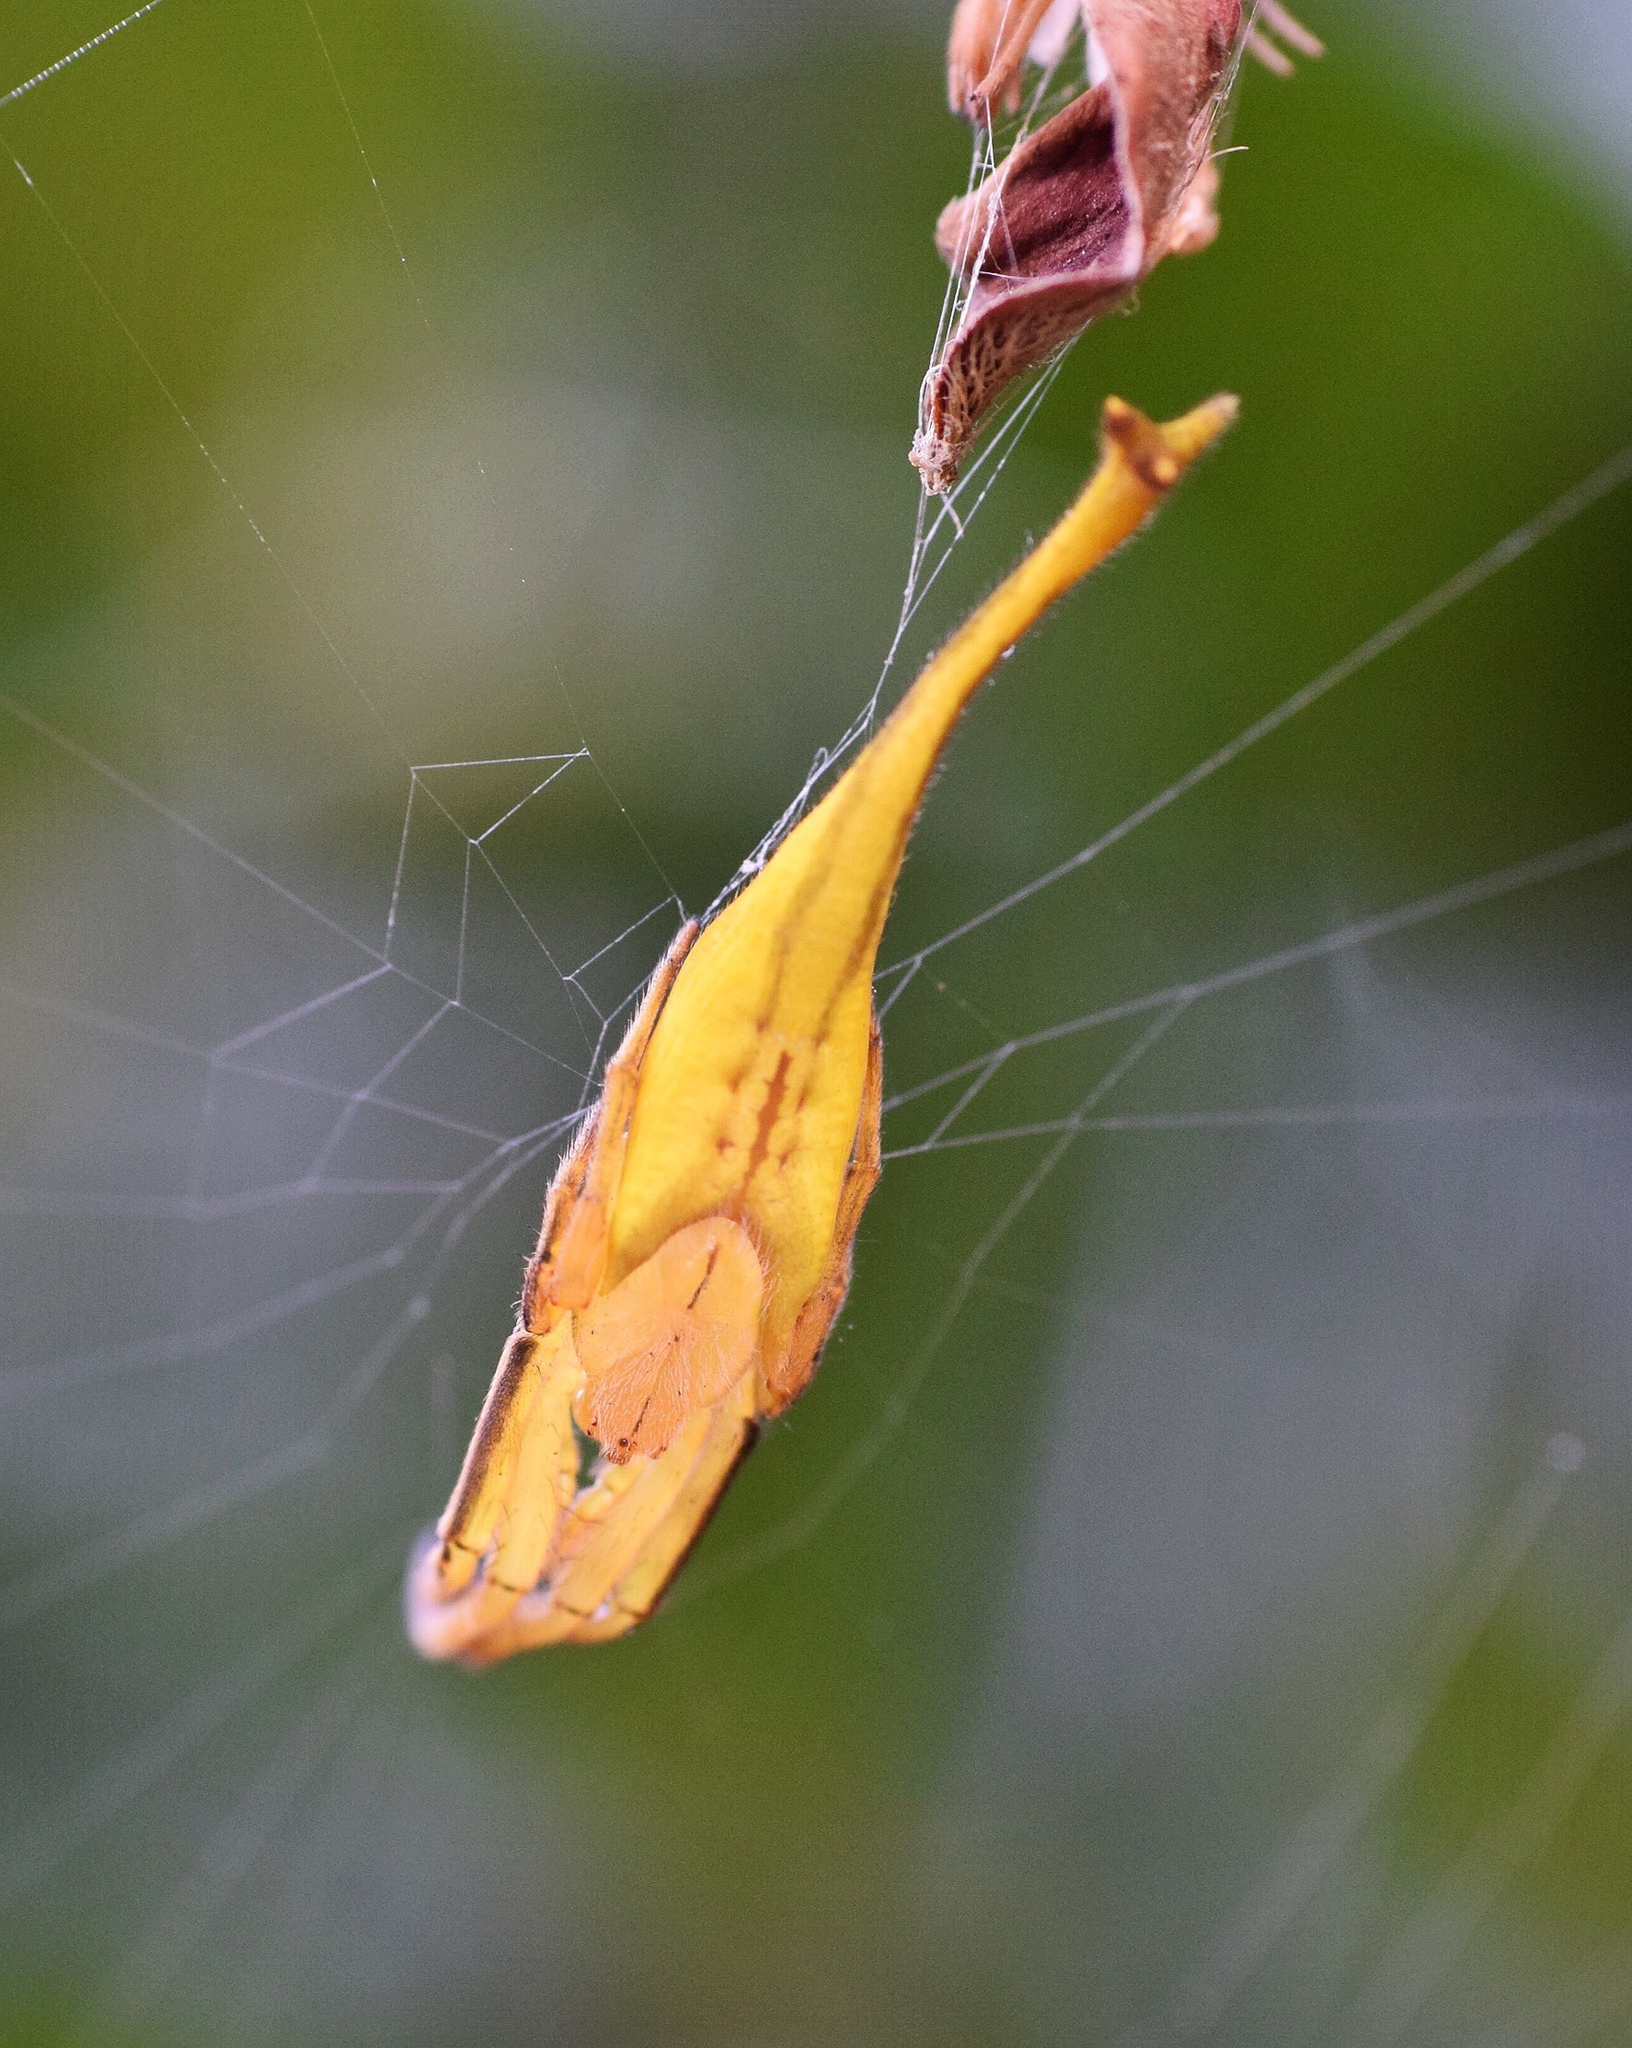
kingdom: Animalia
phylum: Arthropoda
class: Arachnida
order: Araneae
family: Araneidae
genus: Arachnura
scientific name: Arachnura scorpionoides
